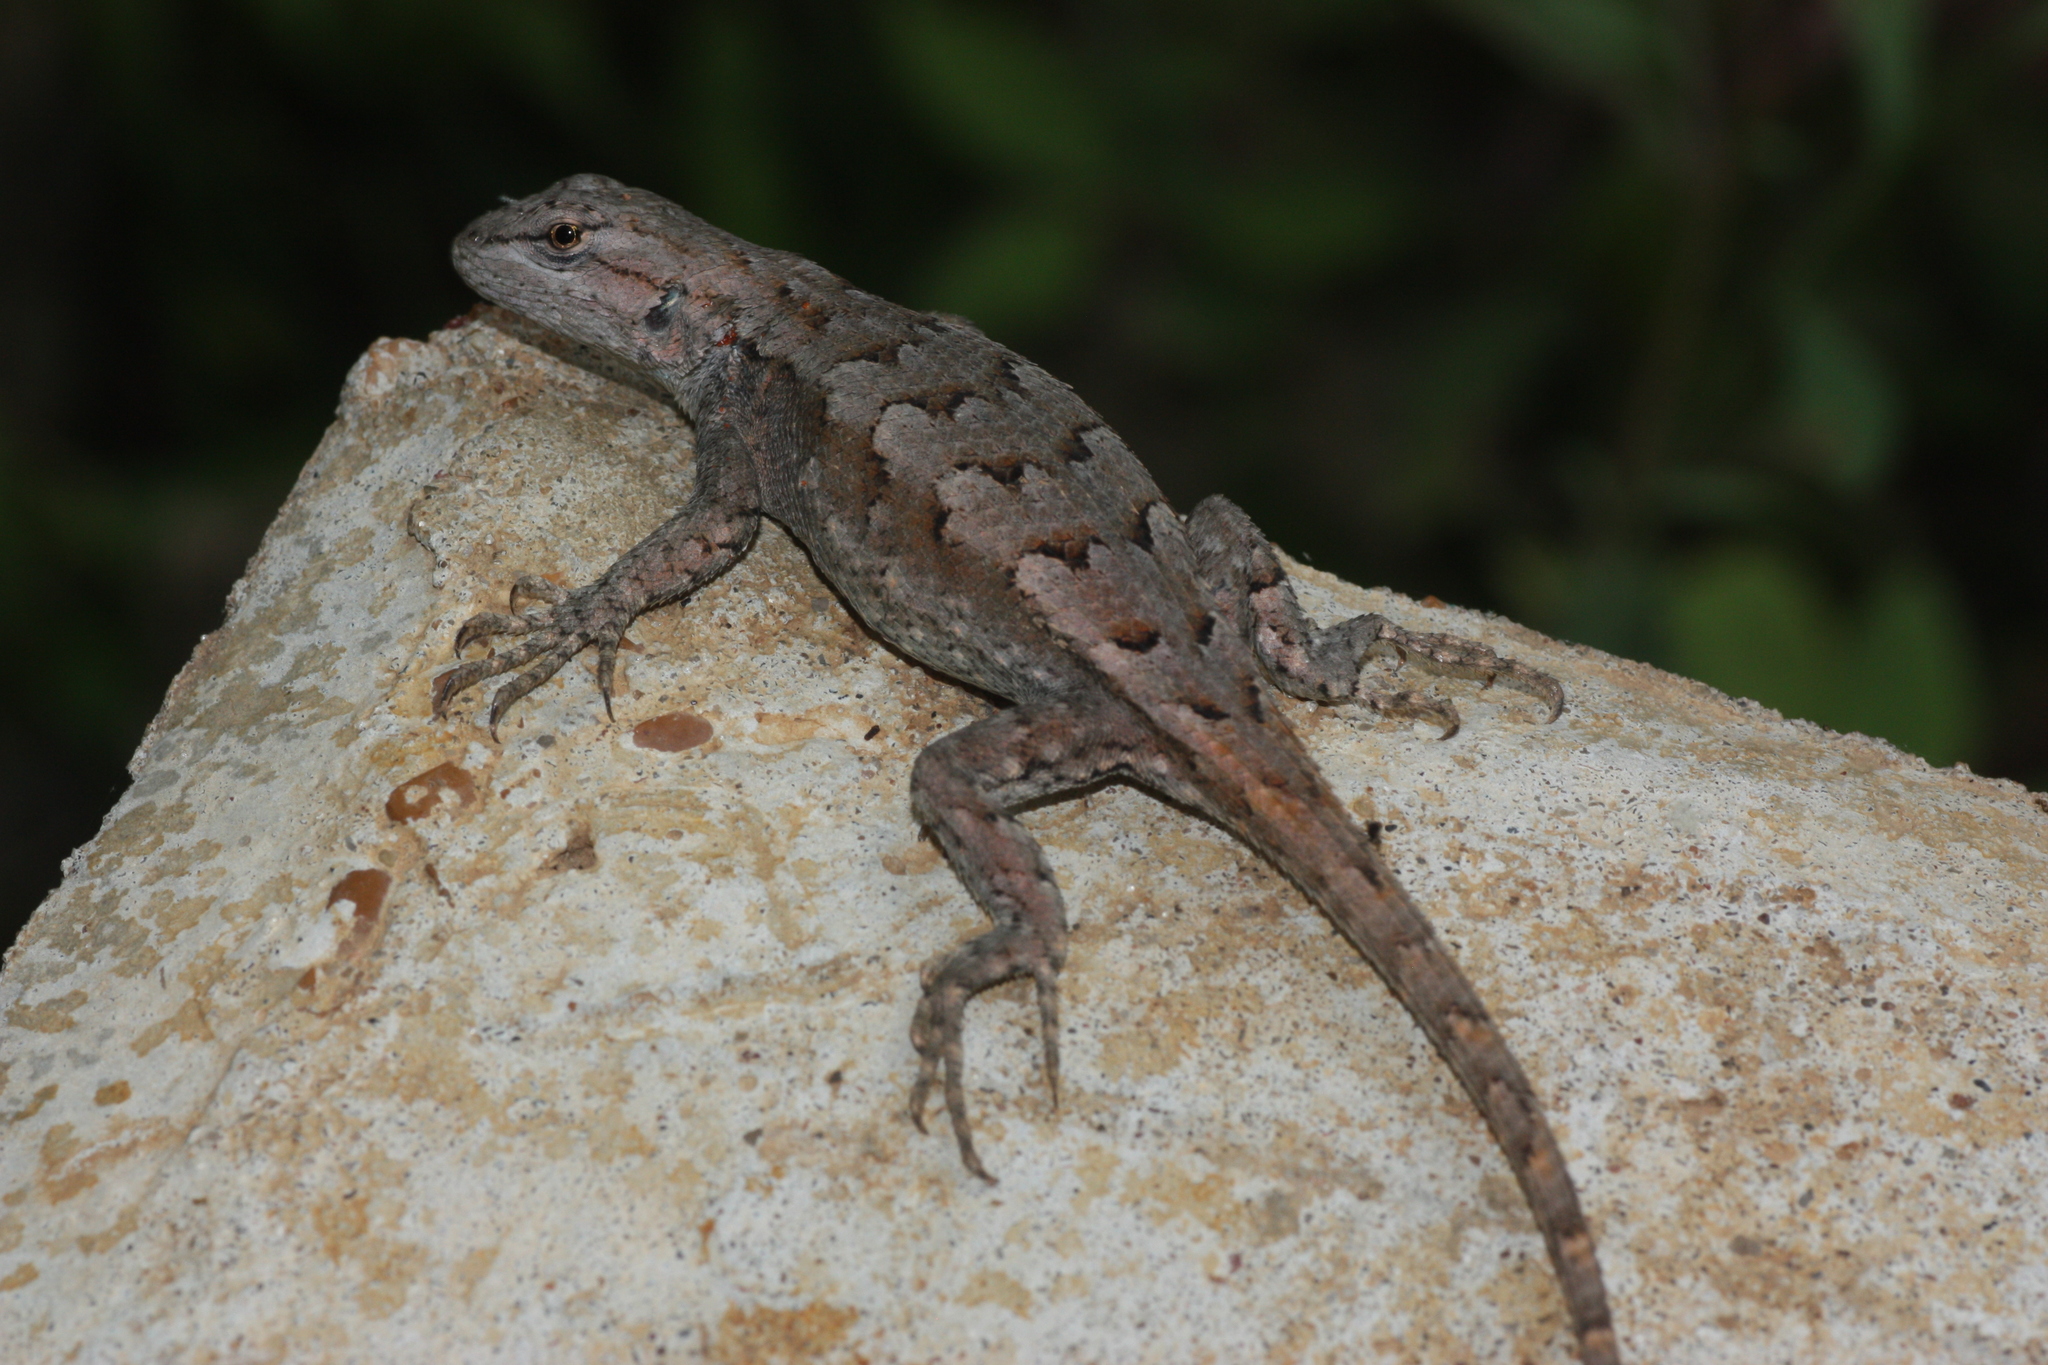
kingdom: Animalia
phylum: Chordata
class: Squamata
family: Phrynosomatidae
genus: Sceloporus
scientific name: Sceloporus consobrinus
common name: Southern prairie lizard
